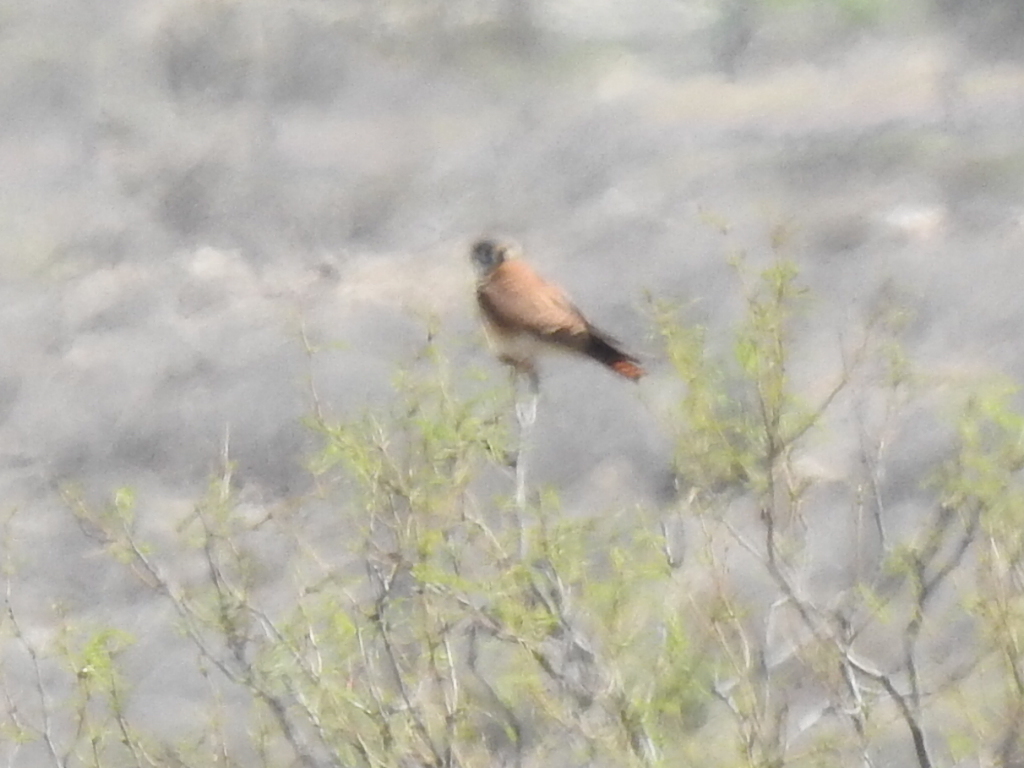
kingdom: Animalia
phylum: Chordata
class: Aves
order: Falconiformes
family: Falconidae
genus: Falco
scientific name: Falco sparverius
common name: American kestrel
